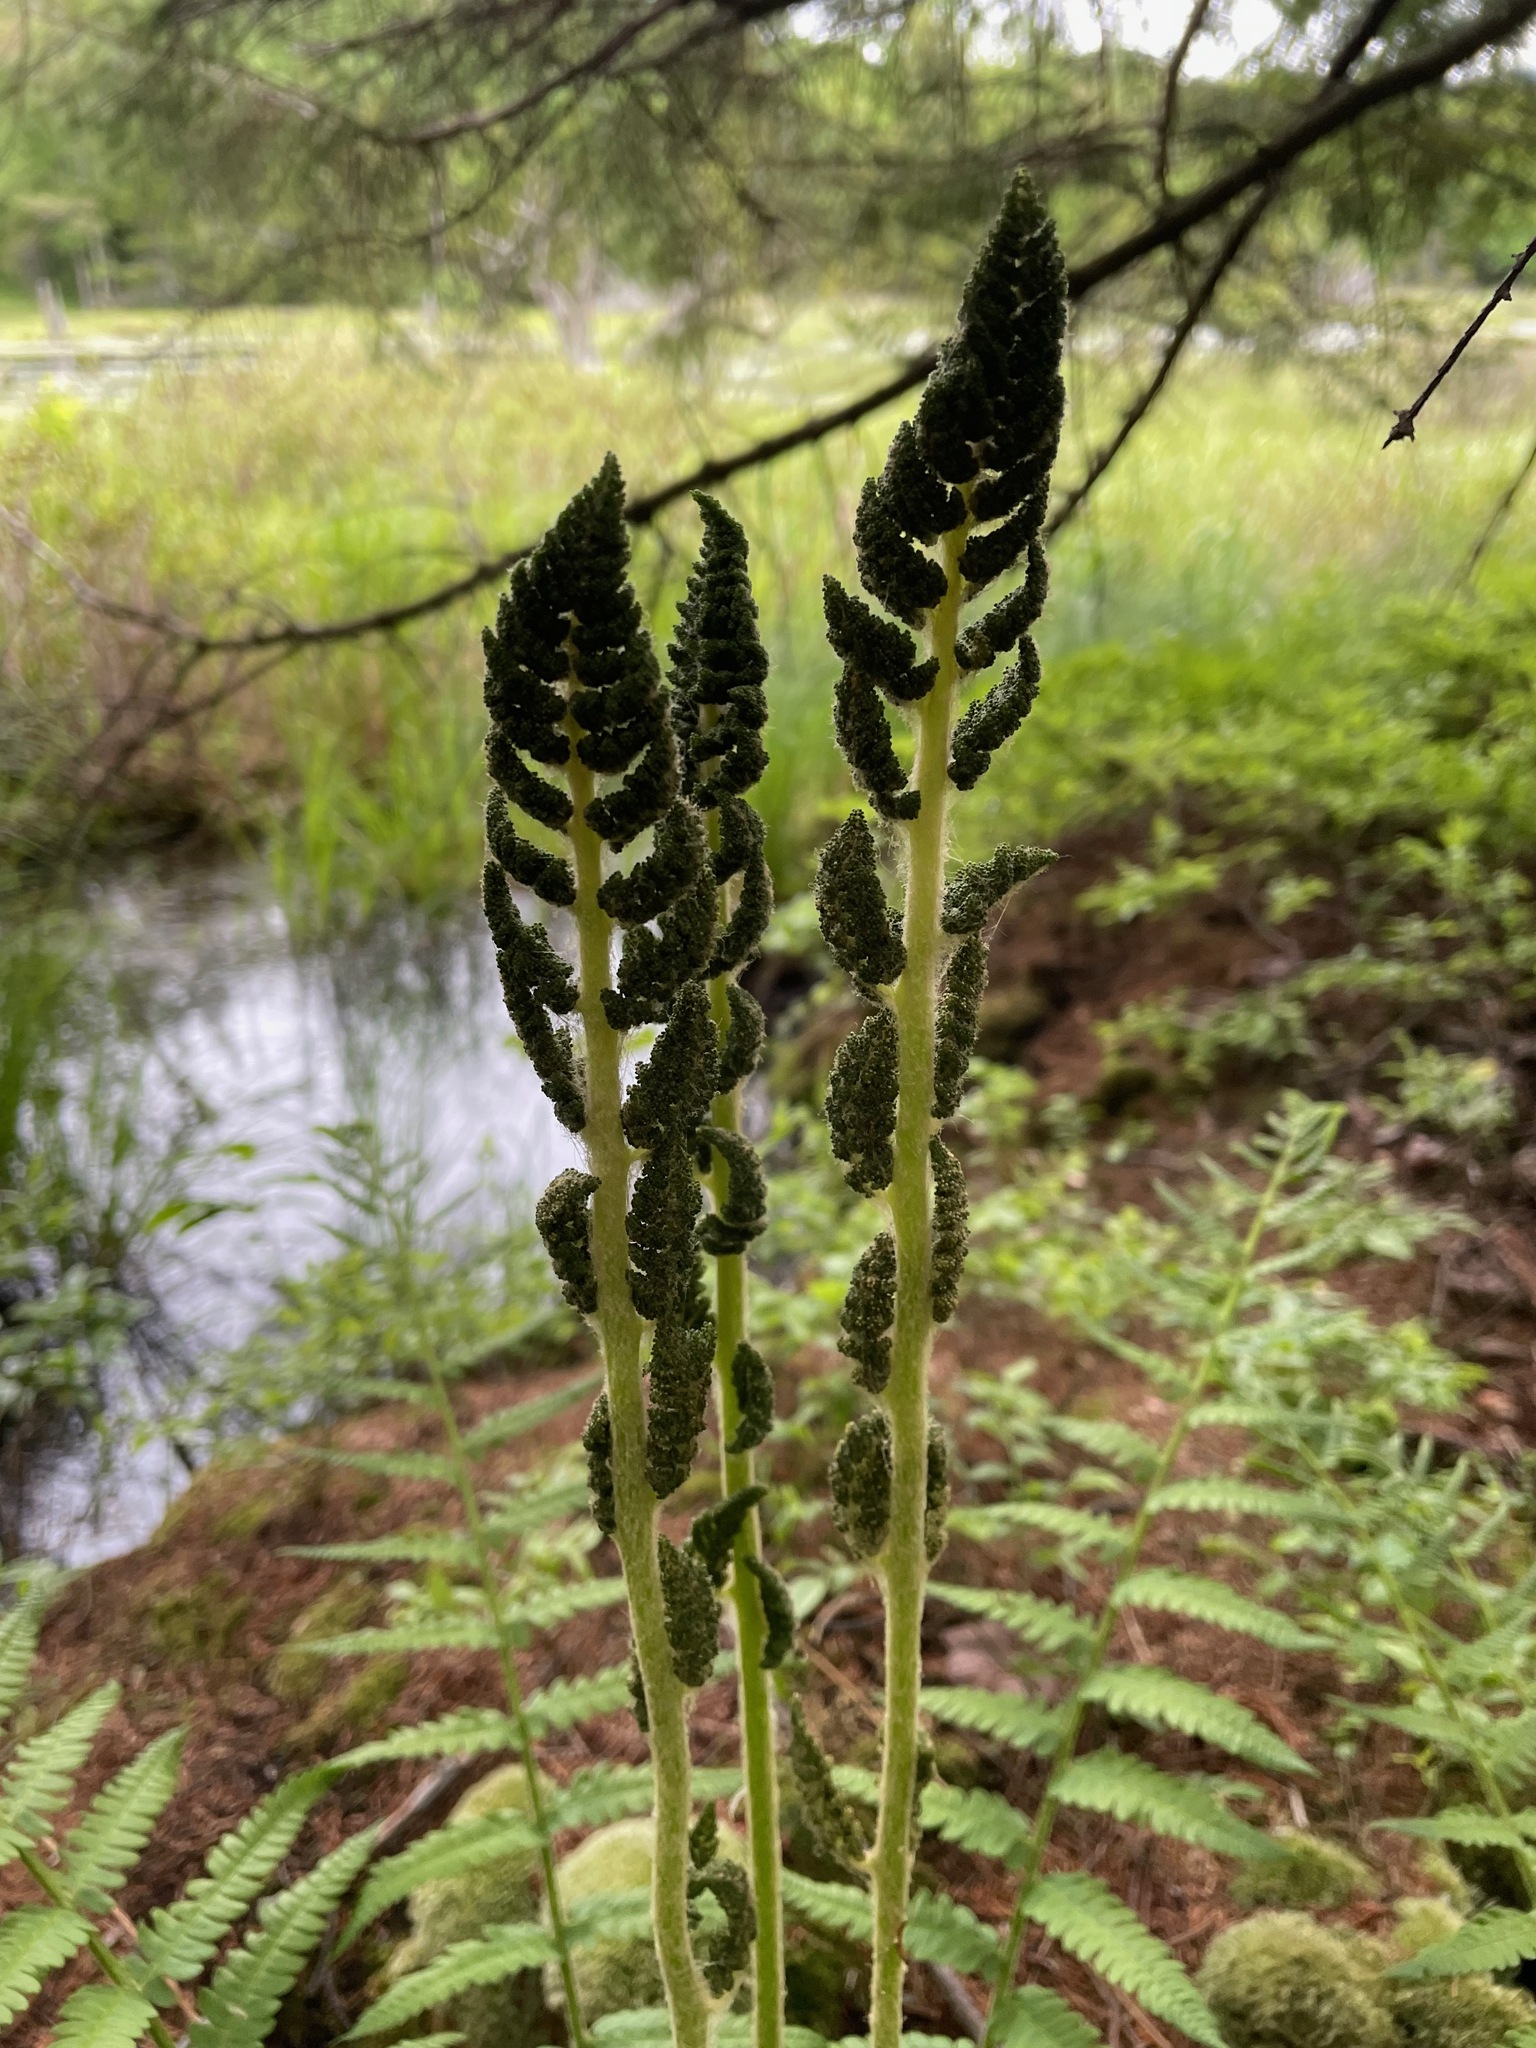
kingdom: Plantae
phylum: Tracheophyta
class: Polypodiopsida
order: Osmundales
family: Osmundaceae
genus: Osmundastrum
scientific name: Osmundastrum cinnamomeum
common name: Cinnamon fern
